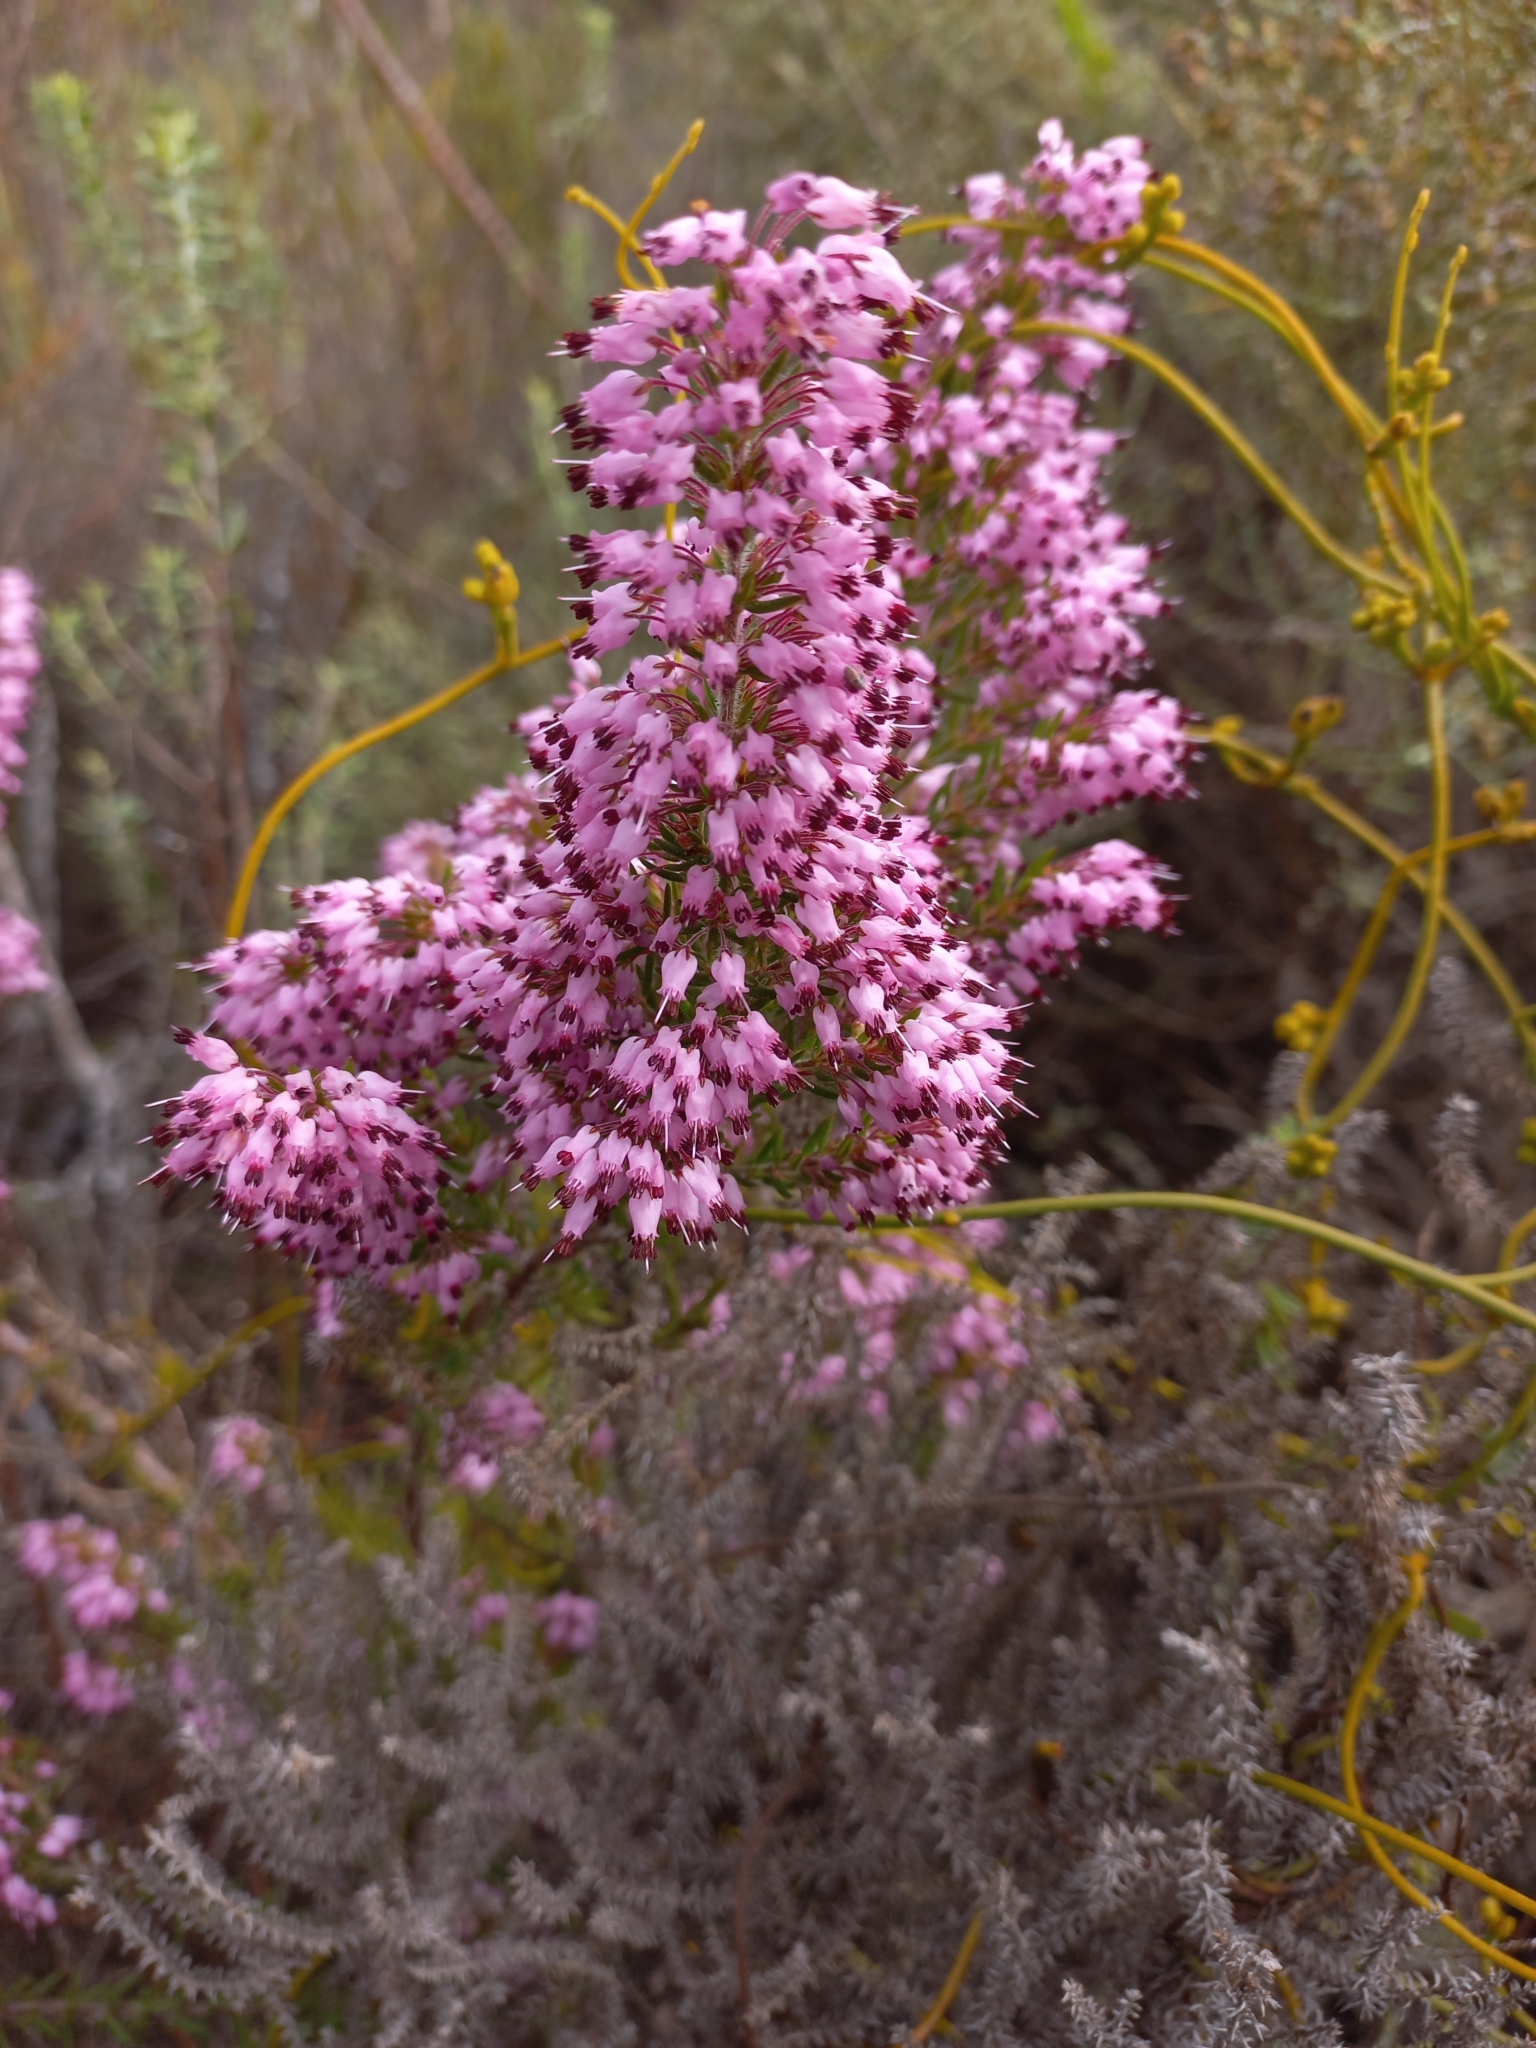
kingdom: Plantae
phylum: Tracheophyta
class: Magnoliopsida
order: Ericales
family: Ericaceae
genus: Erica
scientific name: Erica nudiflora
